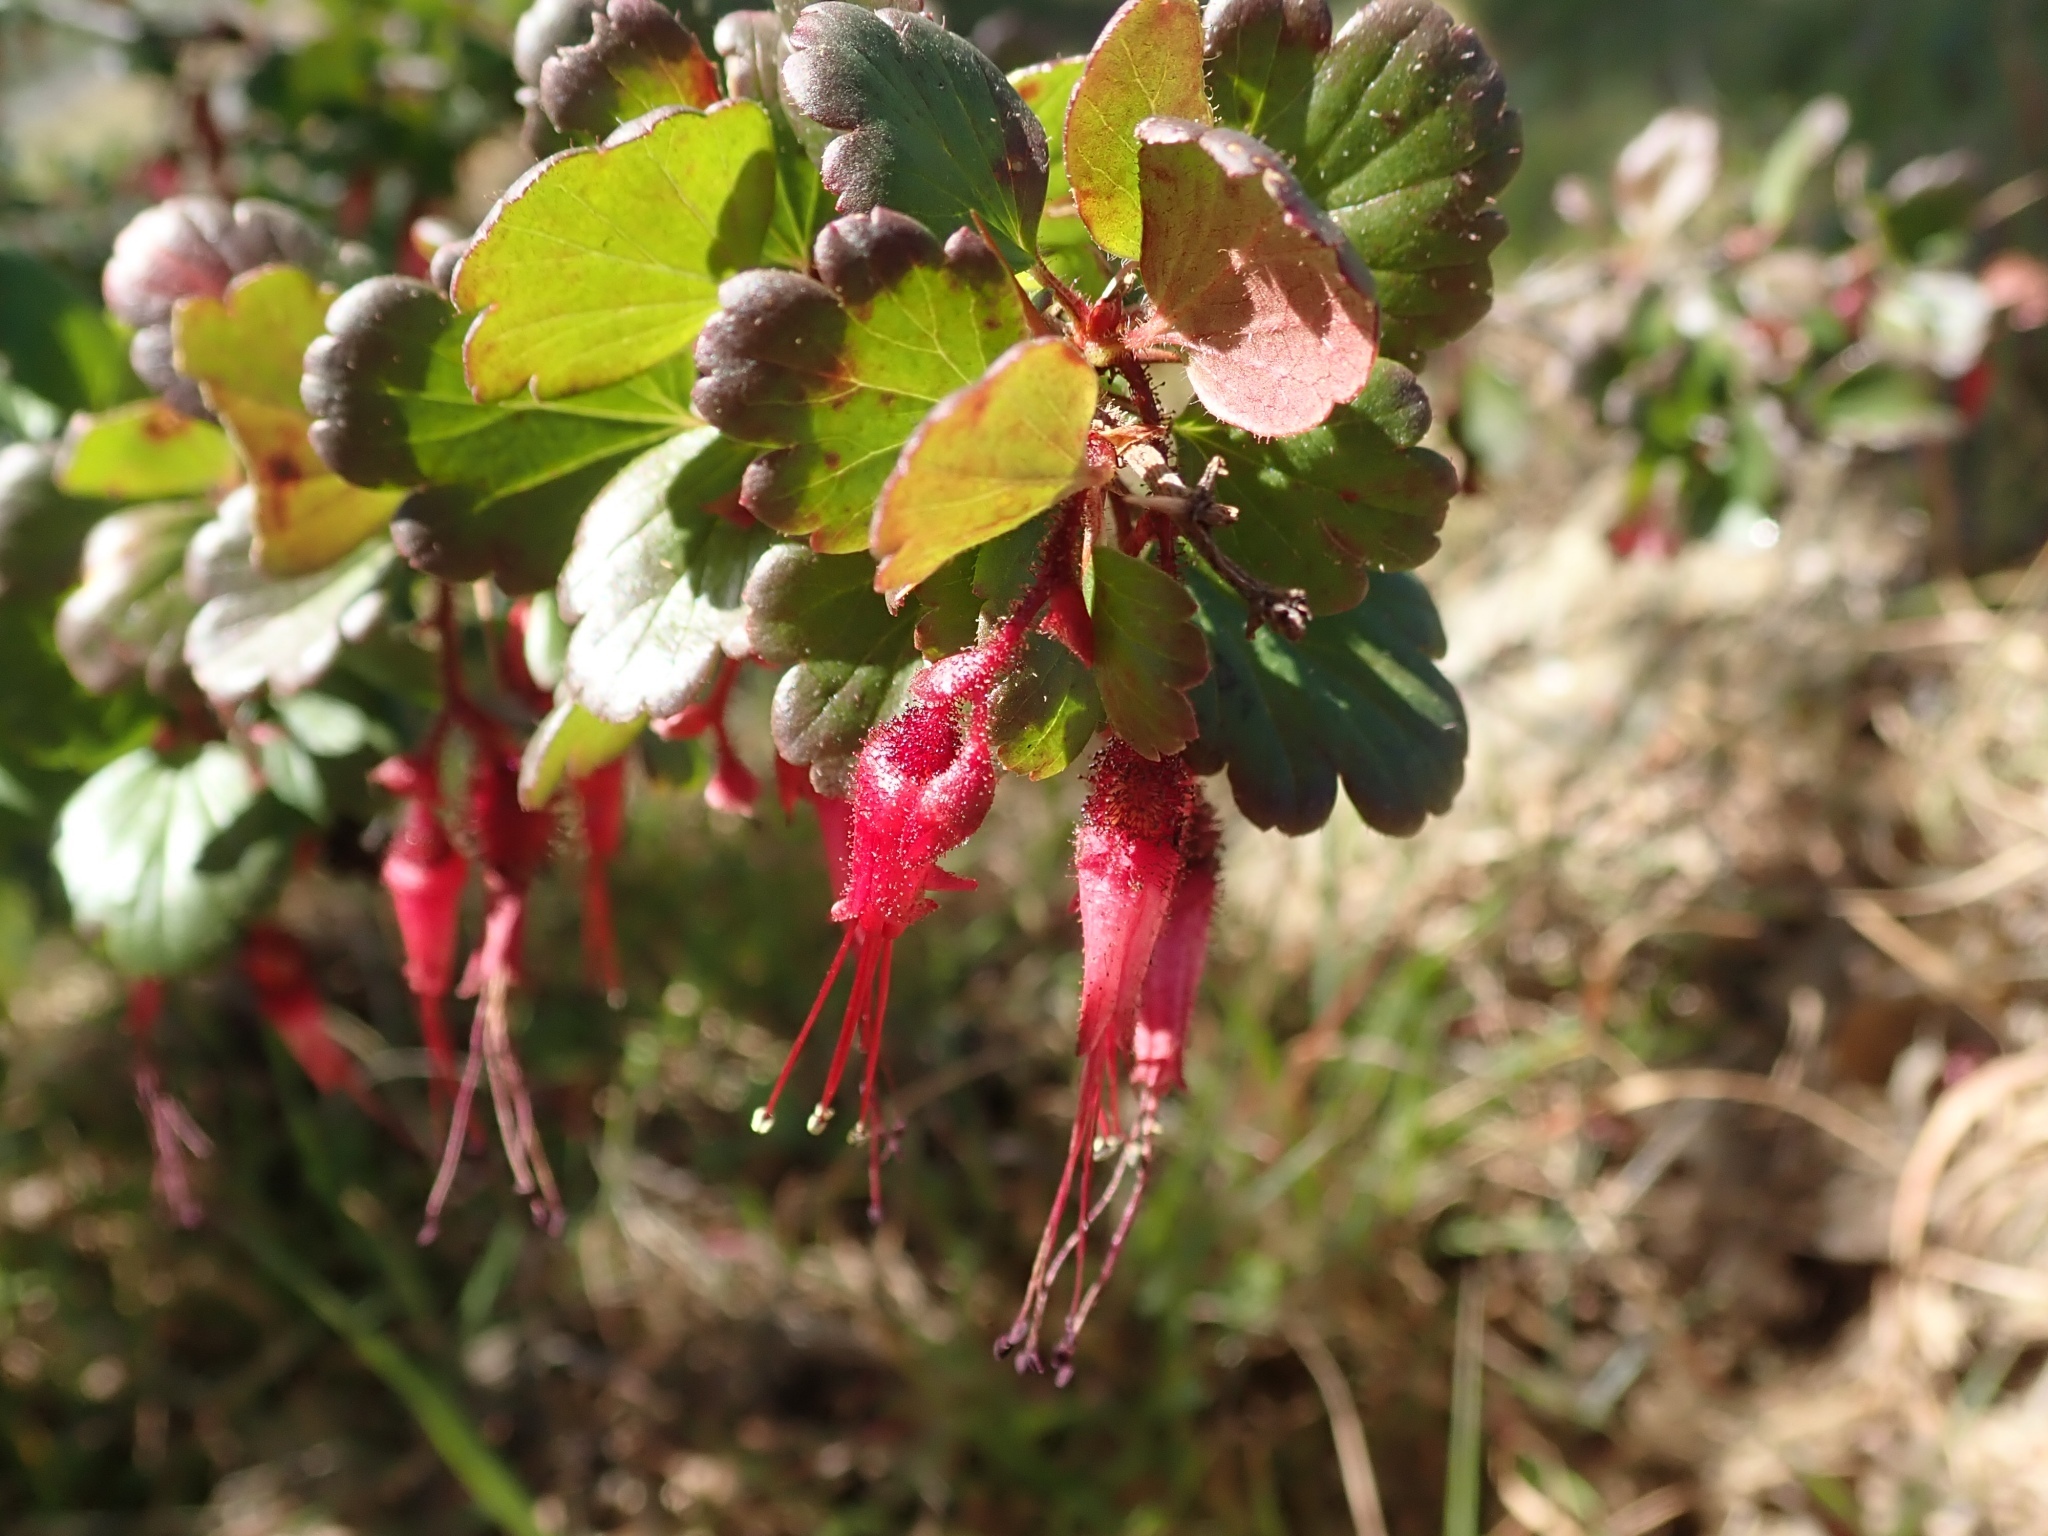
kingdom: Plantae
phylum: Tracheophyta
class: Magnoliopsida
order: Saxifragales
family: Grossulariaceae
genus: Ribes
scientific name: Ribes speciosum
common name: Fuchsia-flower gooseberry
